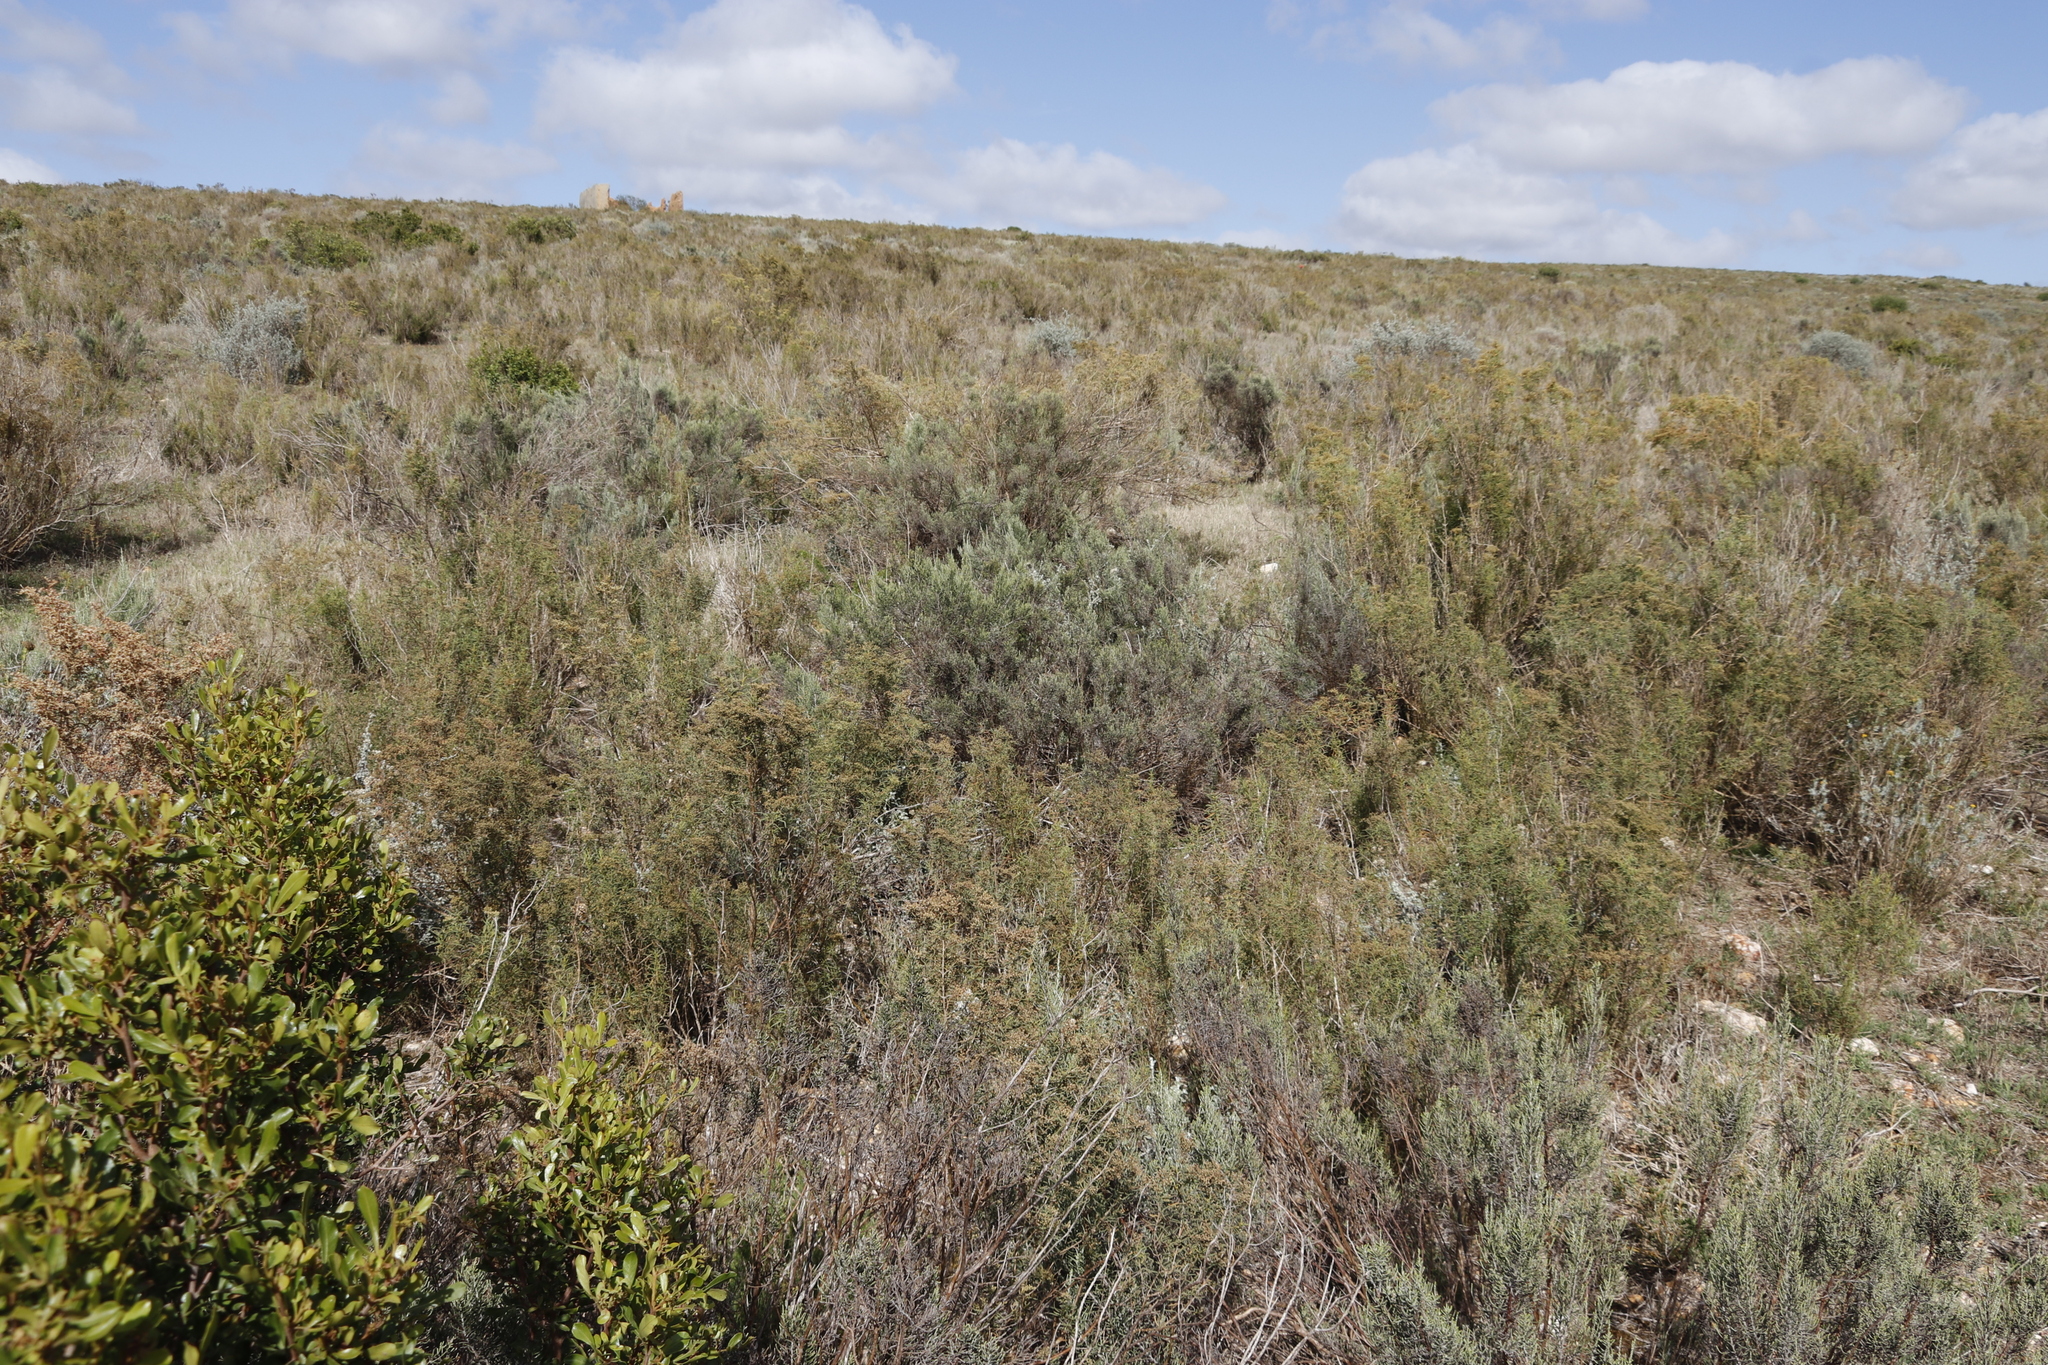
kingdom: Plantae
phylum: Tracheophyta
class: Magnoliopsida
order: Asterales
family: Asteraceae
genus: Dicerothamnus
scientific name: Dicerothamnus rhinocerotis
